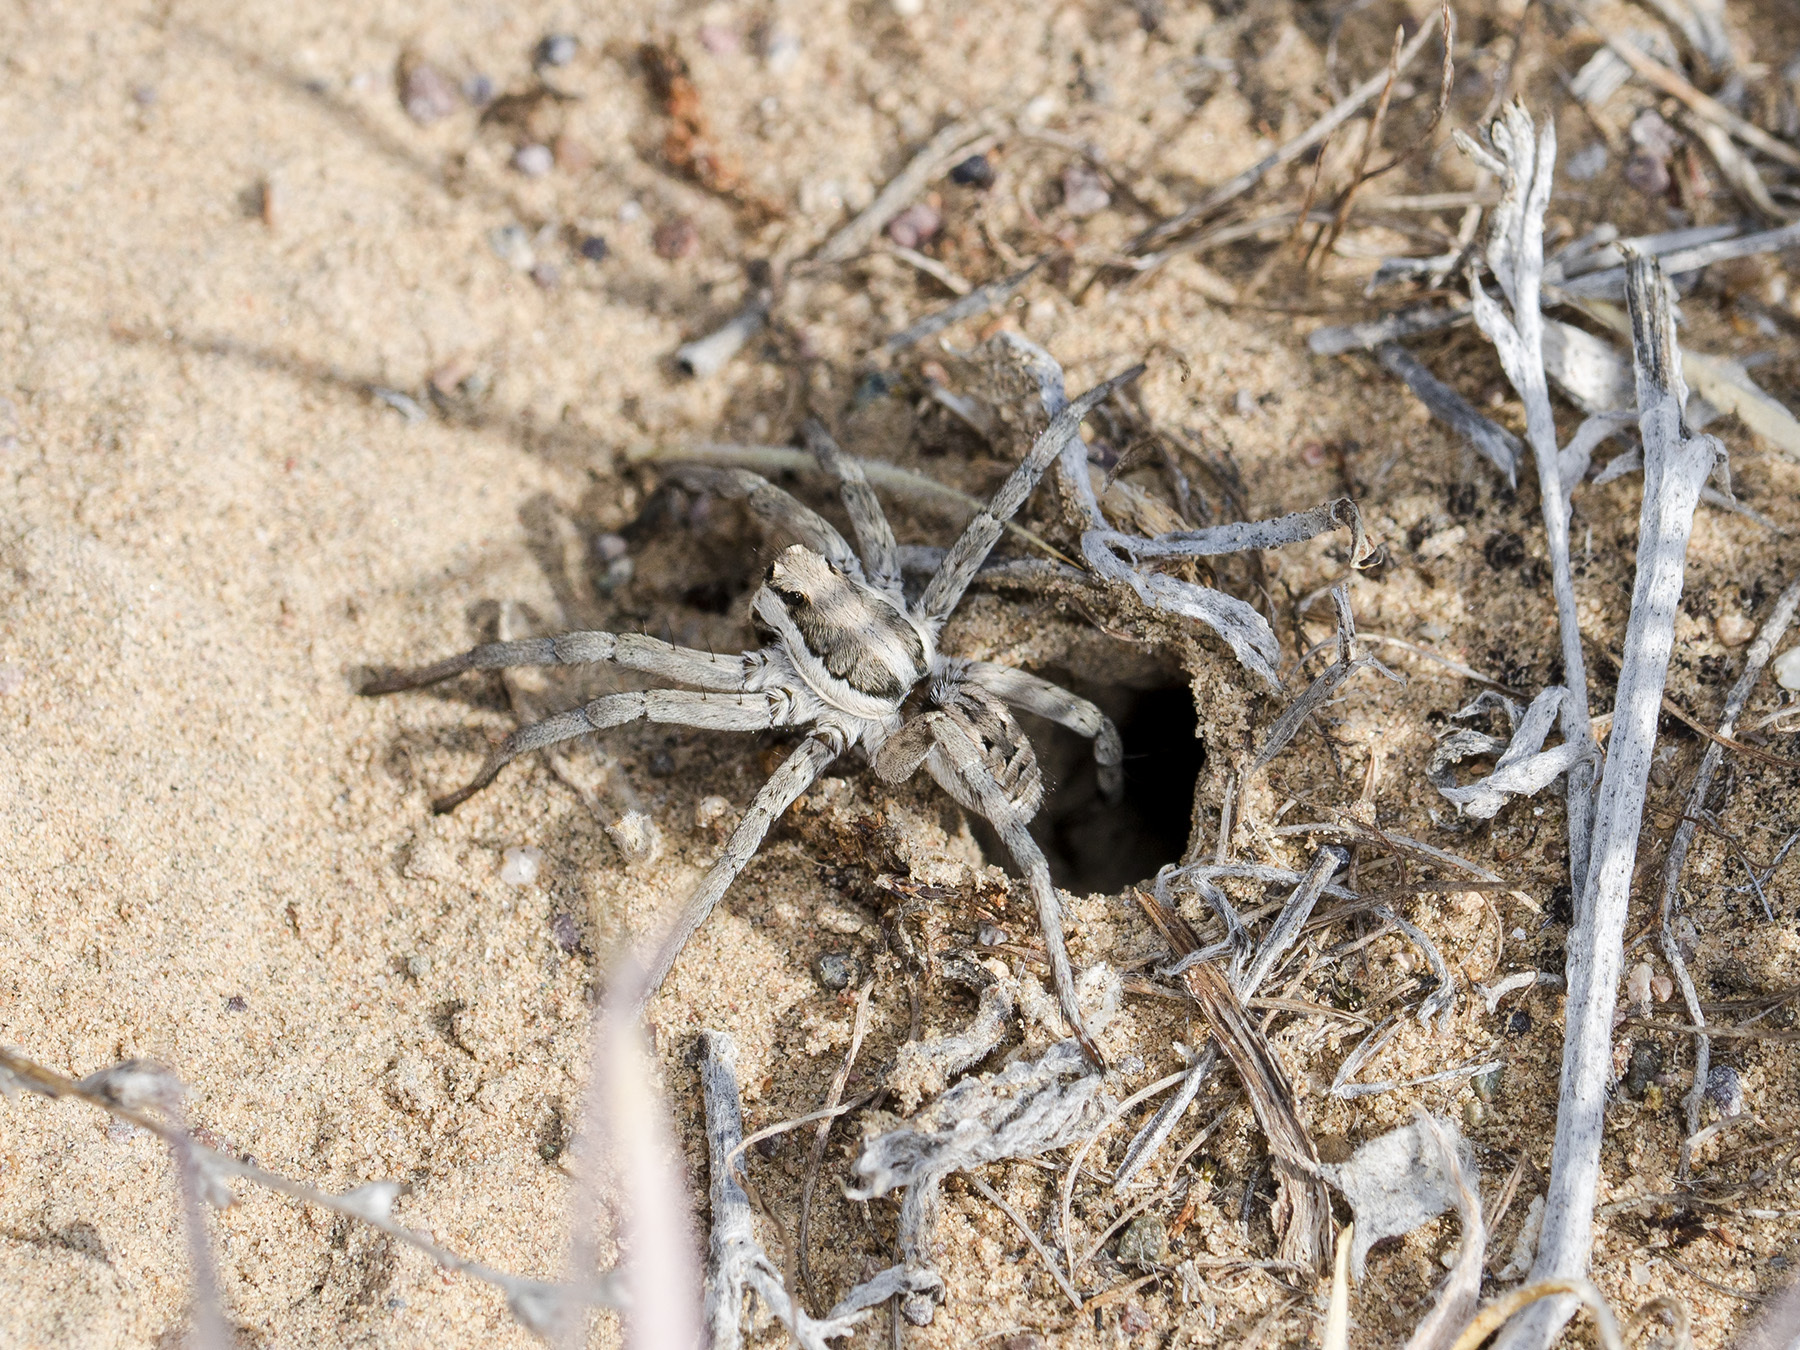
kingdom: Animalia
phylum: Arthropoda
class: Arachnida
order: Araneae
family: Lycosidae
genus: Lycosa
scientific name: Lycosa praegrandis
